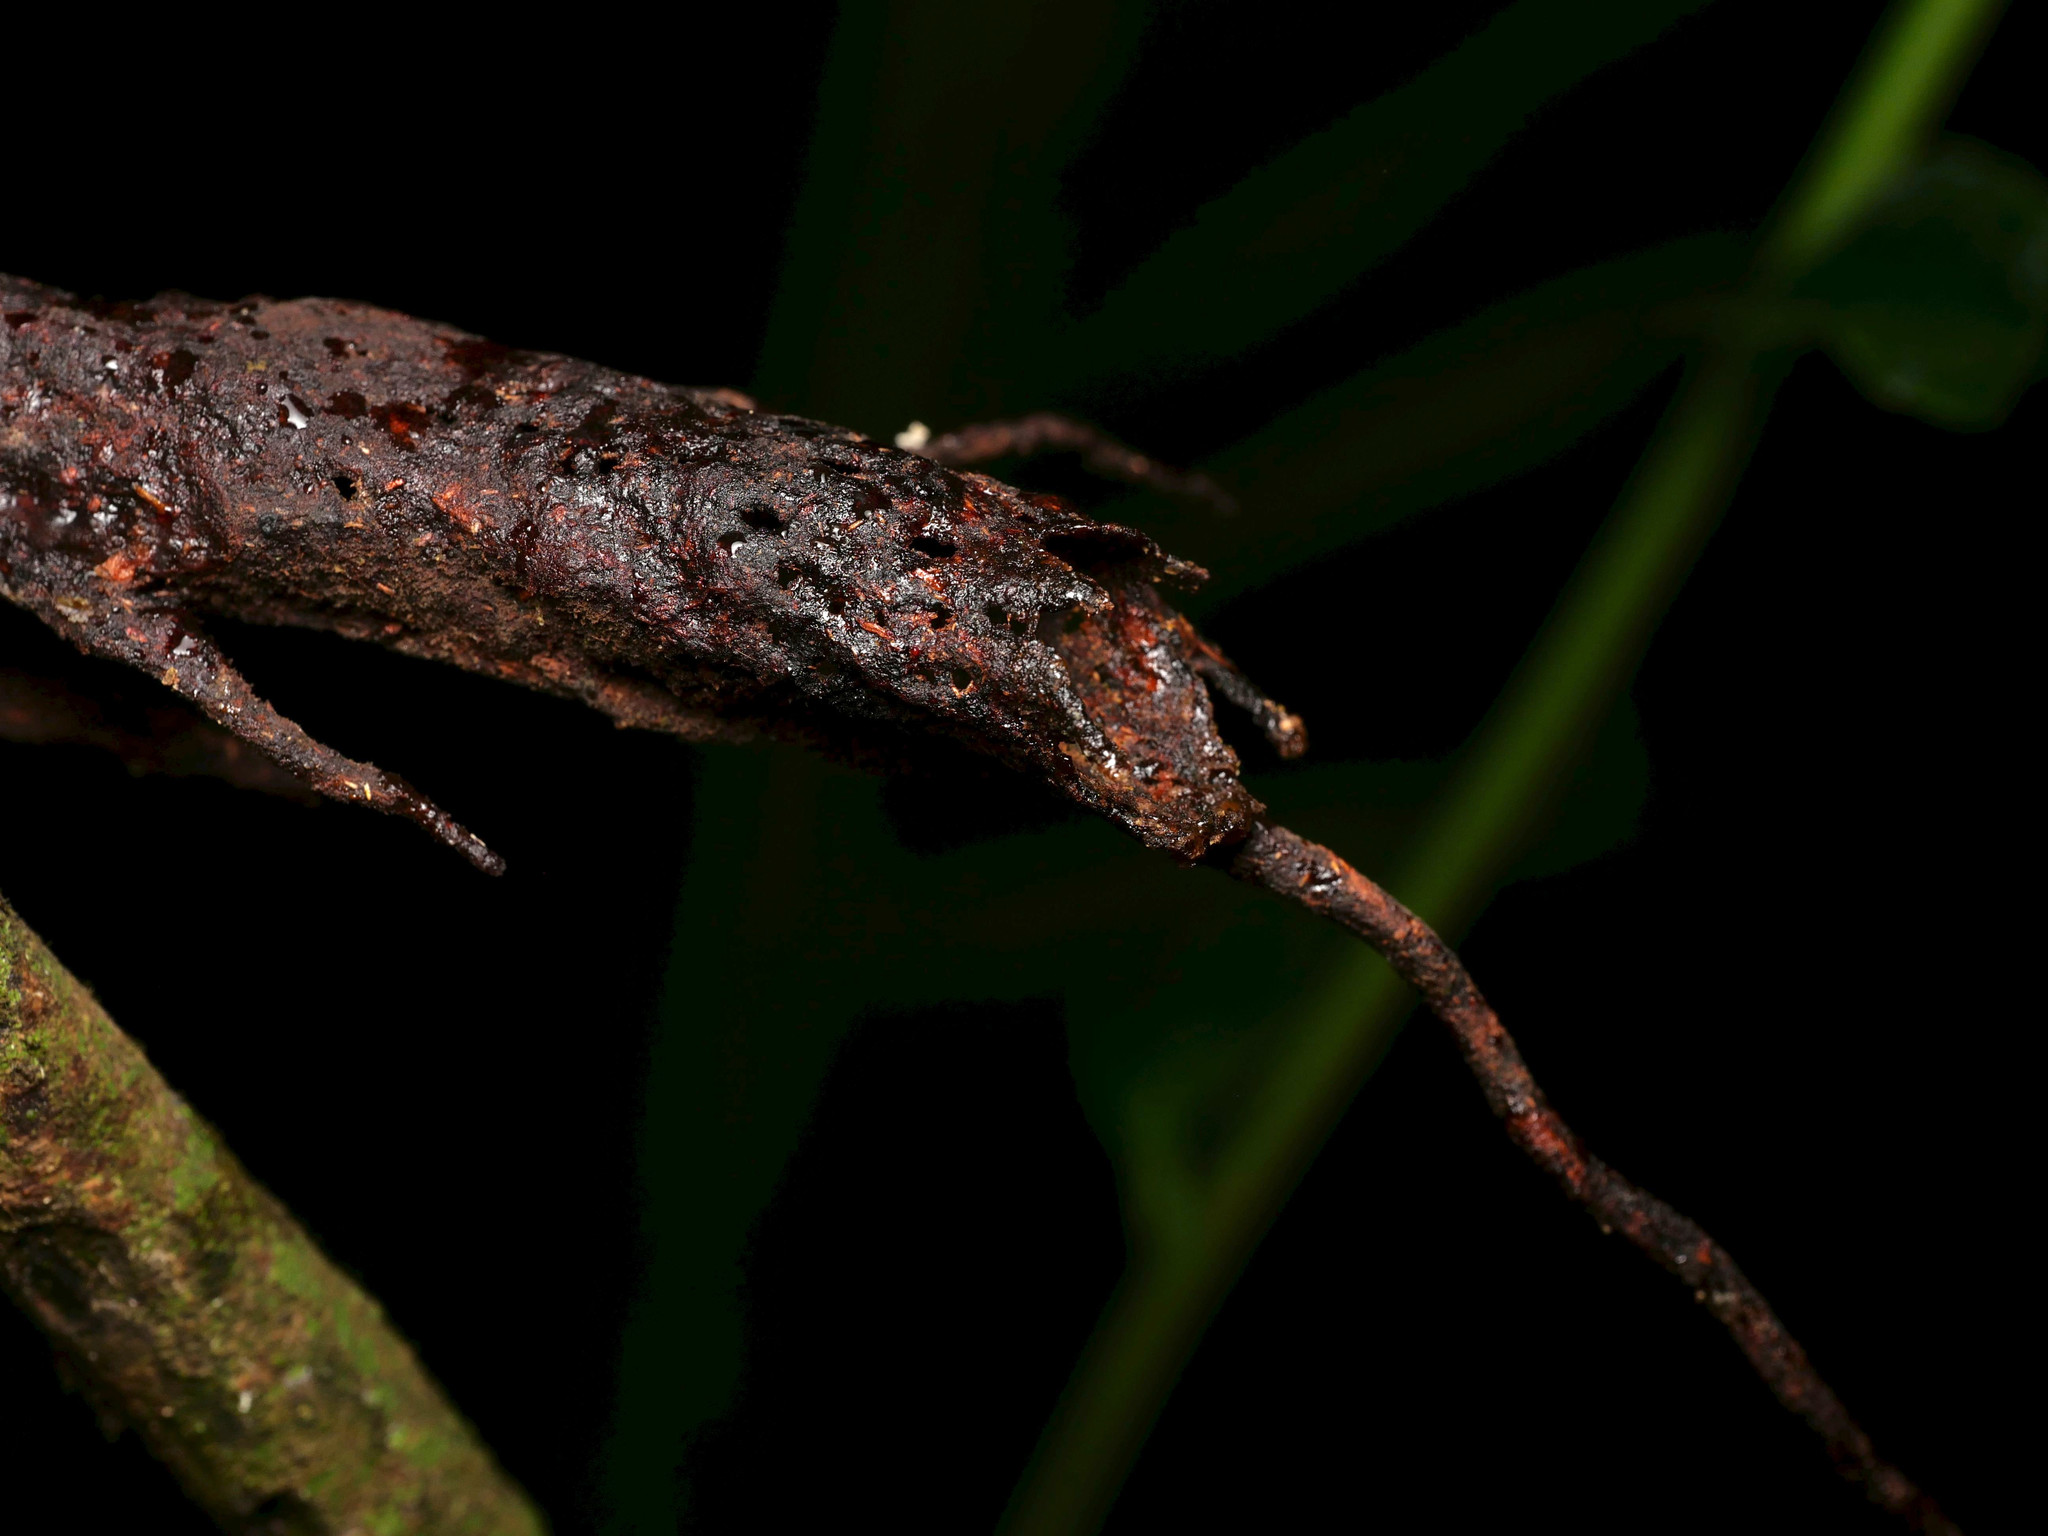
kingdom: Animalia
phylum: Arthropoda
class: Insecta
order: Hymenoptera
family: Apidae
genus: Tetragona
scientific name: Tetragona ziegleri
